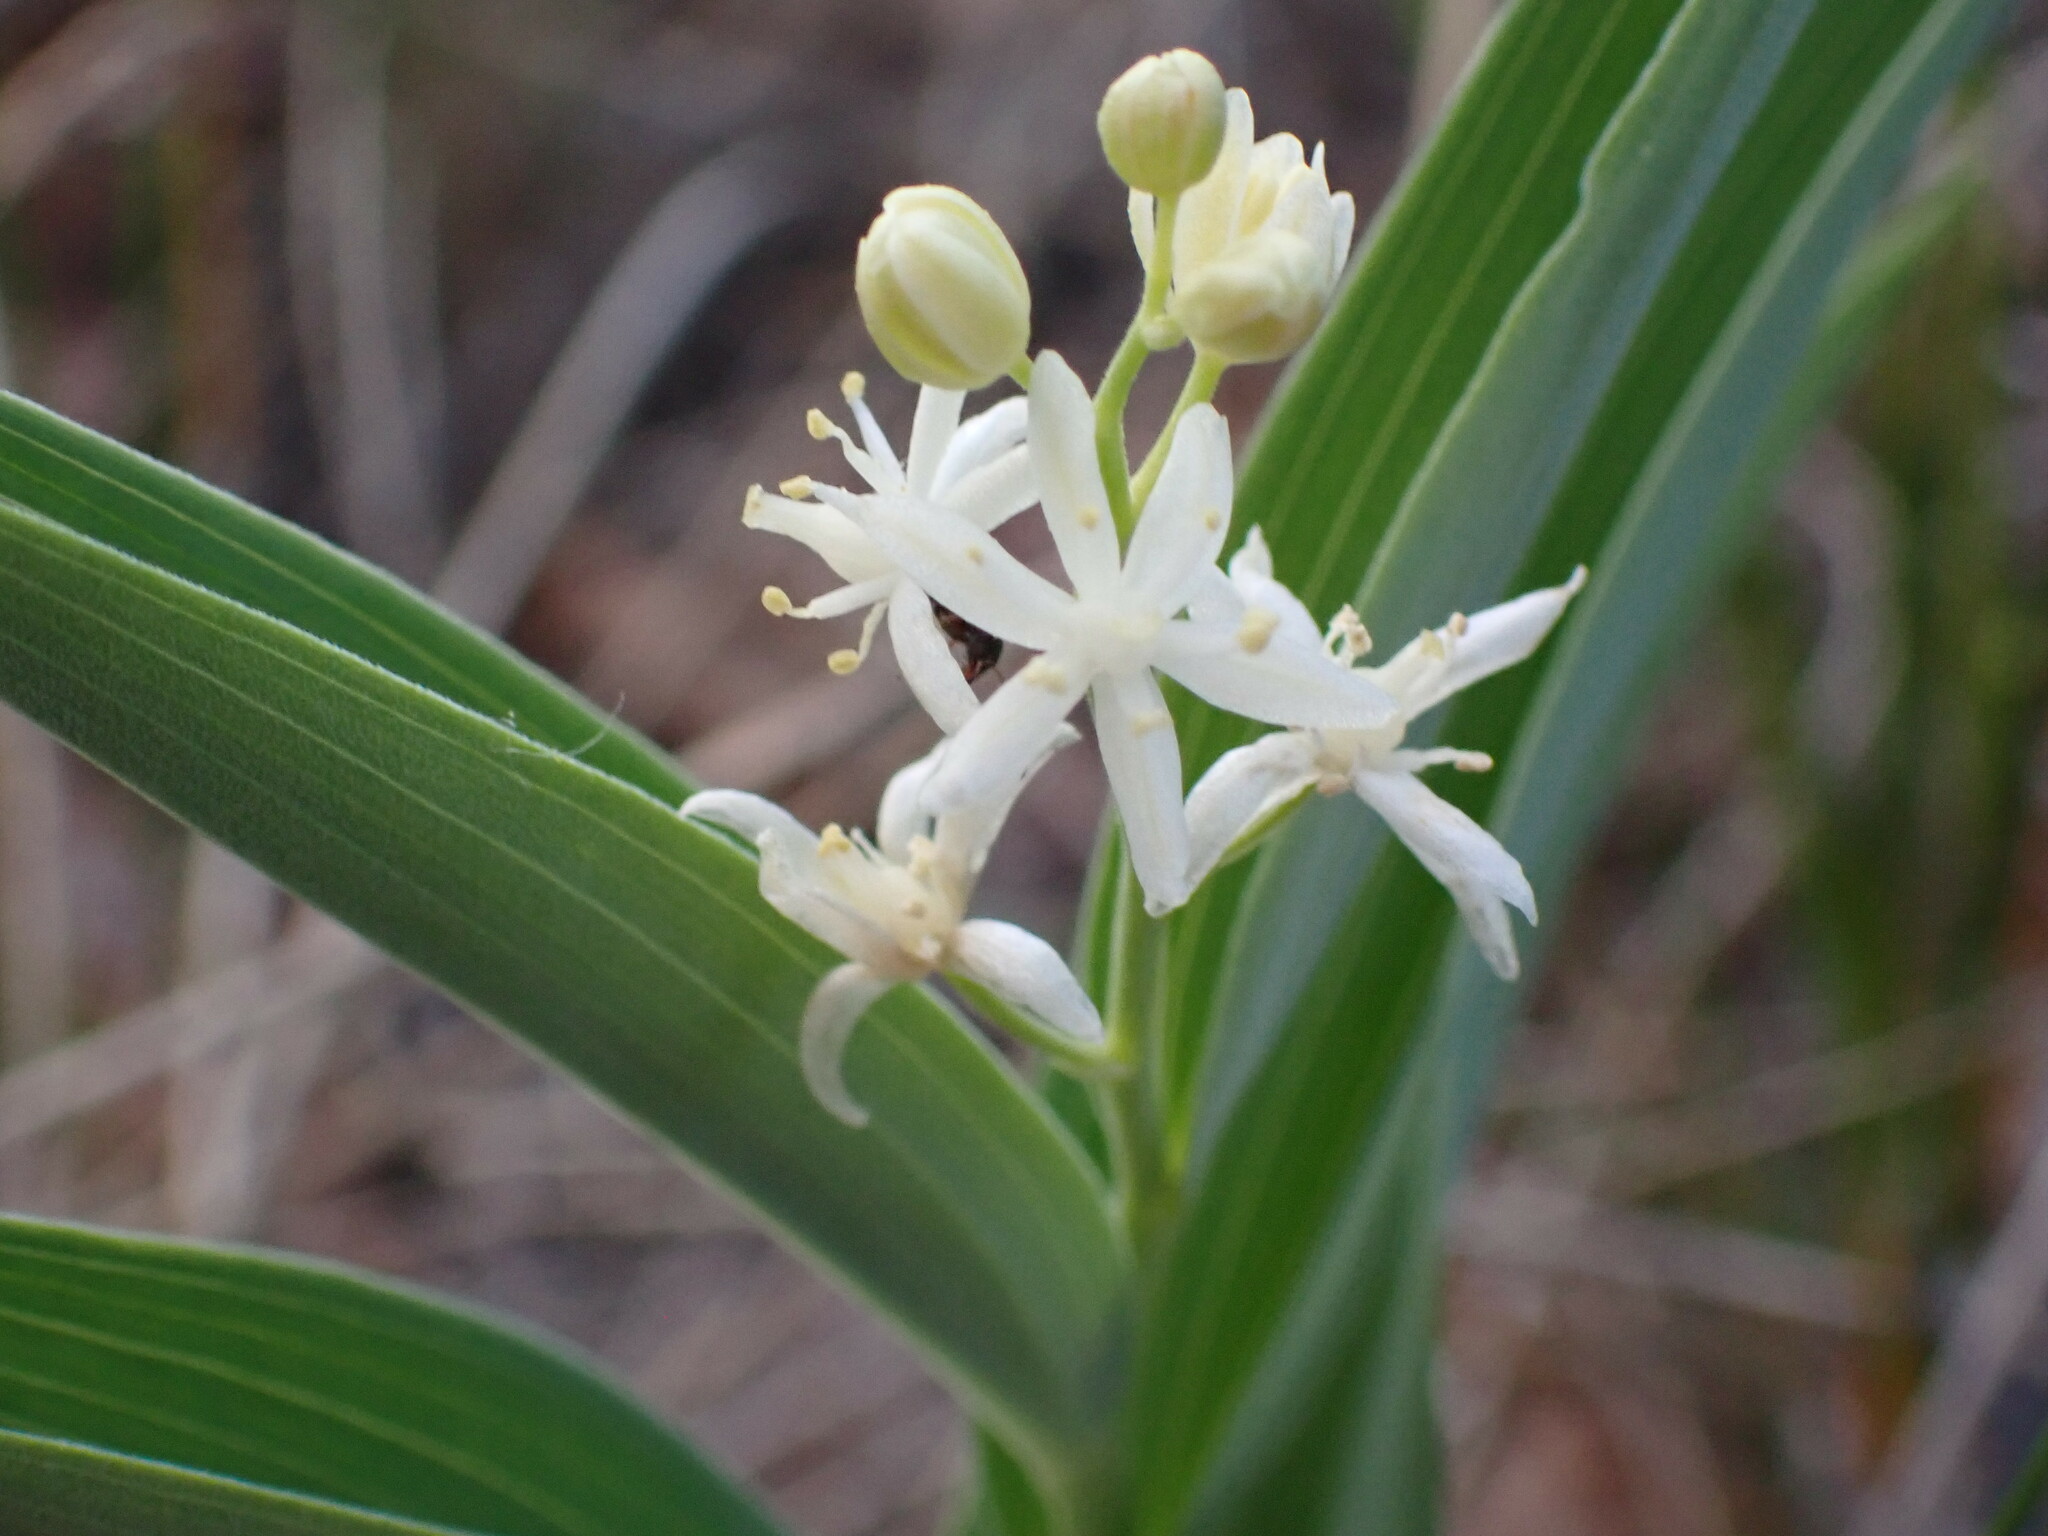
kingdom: Plantae
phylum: Tracheophyta
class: Liliopsida
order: Asparagales
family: Asparagaceae
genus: Maianthemum
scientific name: Maianthemum stellatum
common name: Little false solomon's seal
